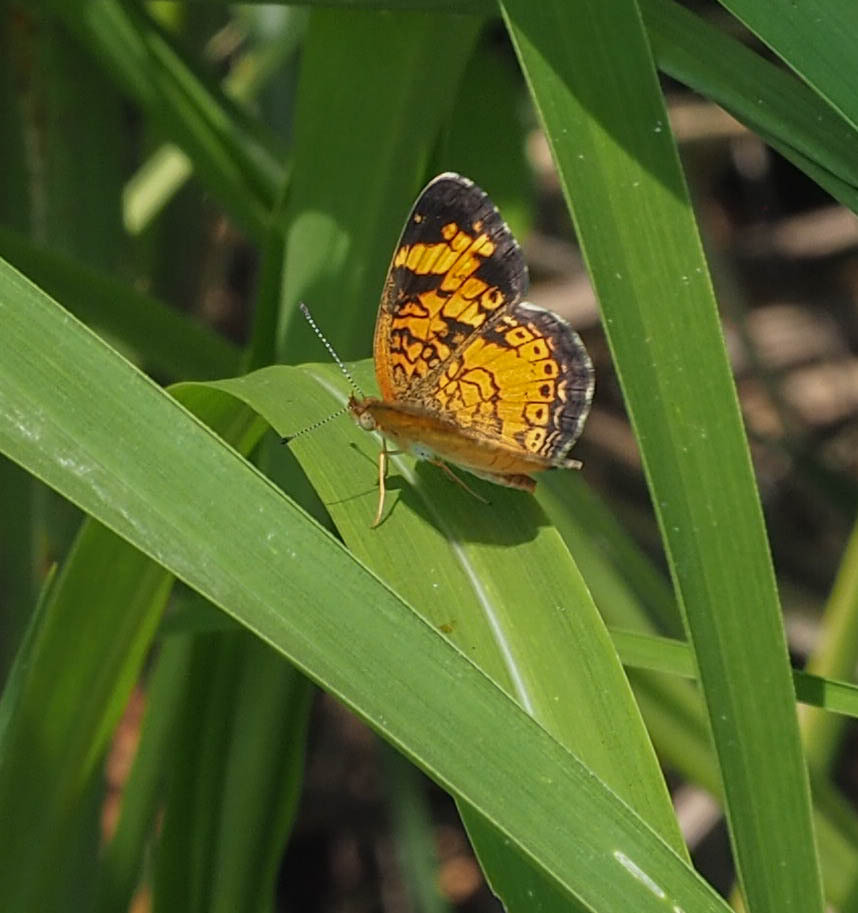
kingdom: Animalia
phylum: Arthropoda
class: Insecta
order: Lepidoptera
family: Nymphalidae
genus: Phyciodes
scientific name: Phyciodes tharos
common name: Pearl crescent
